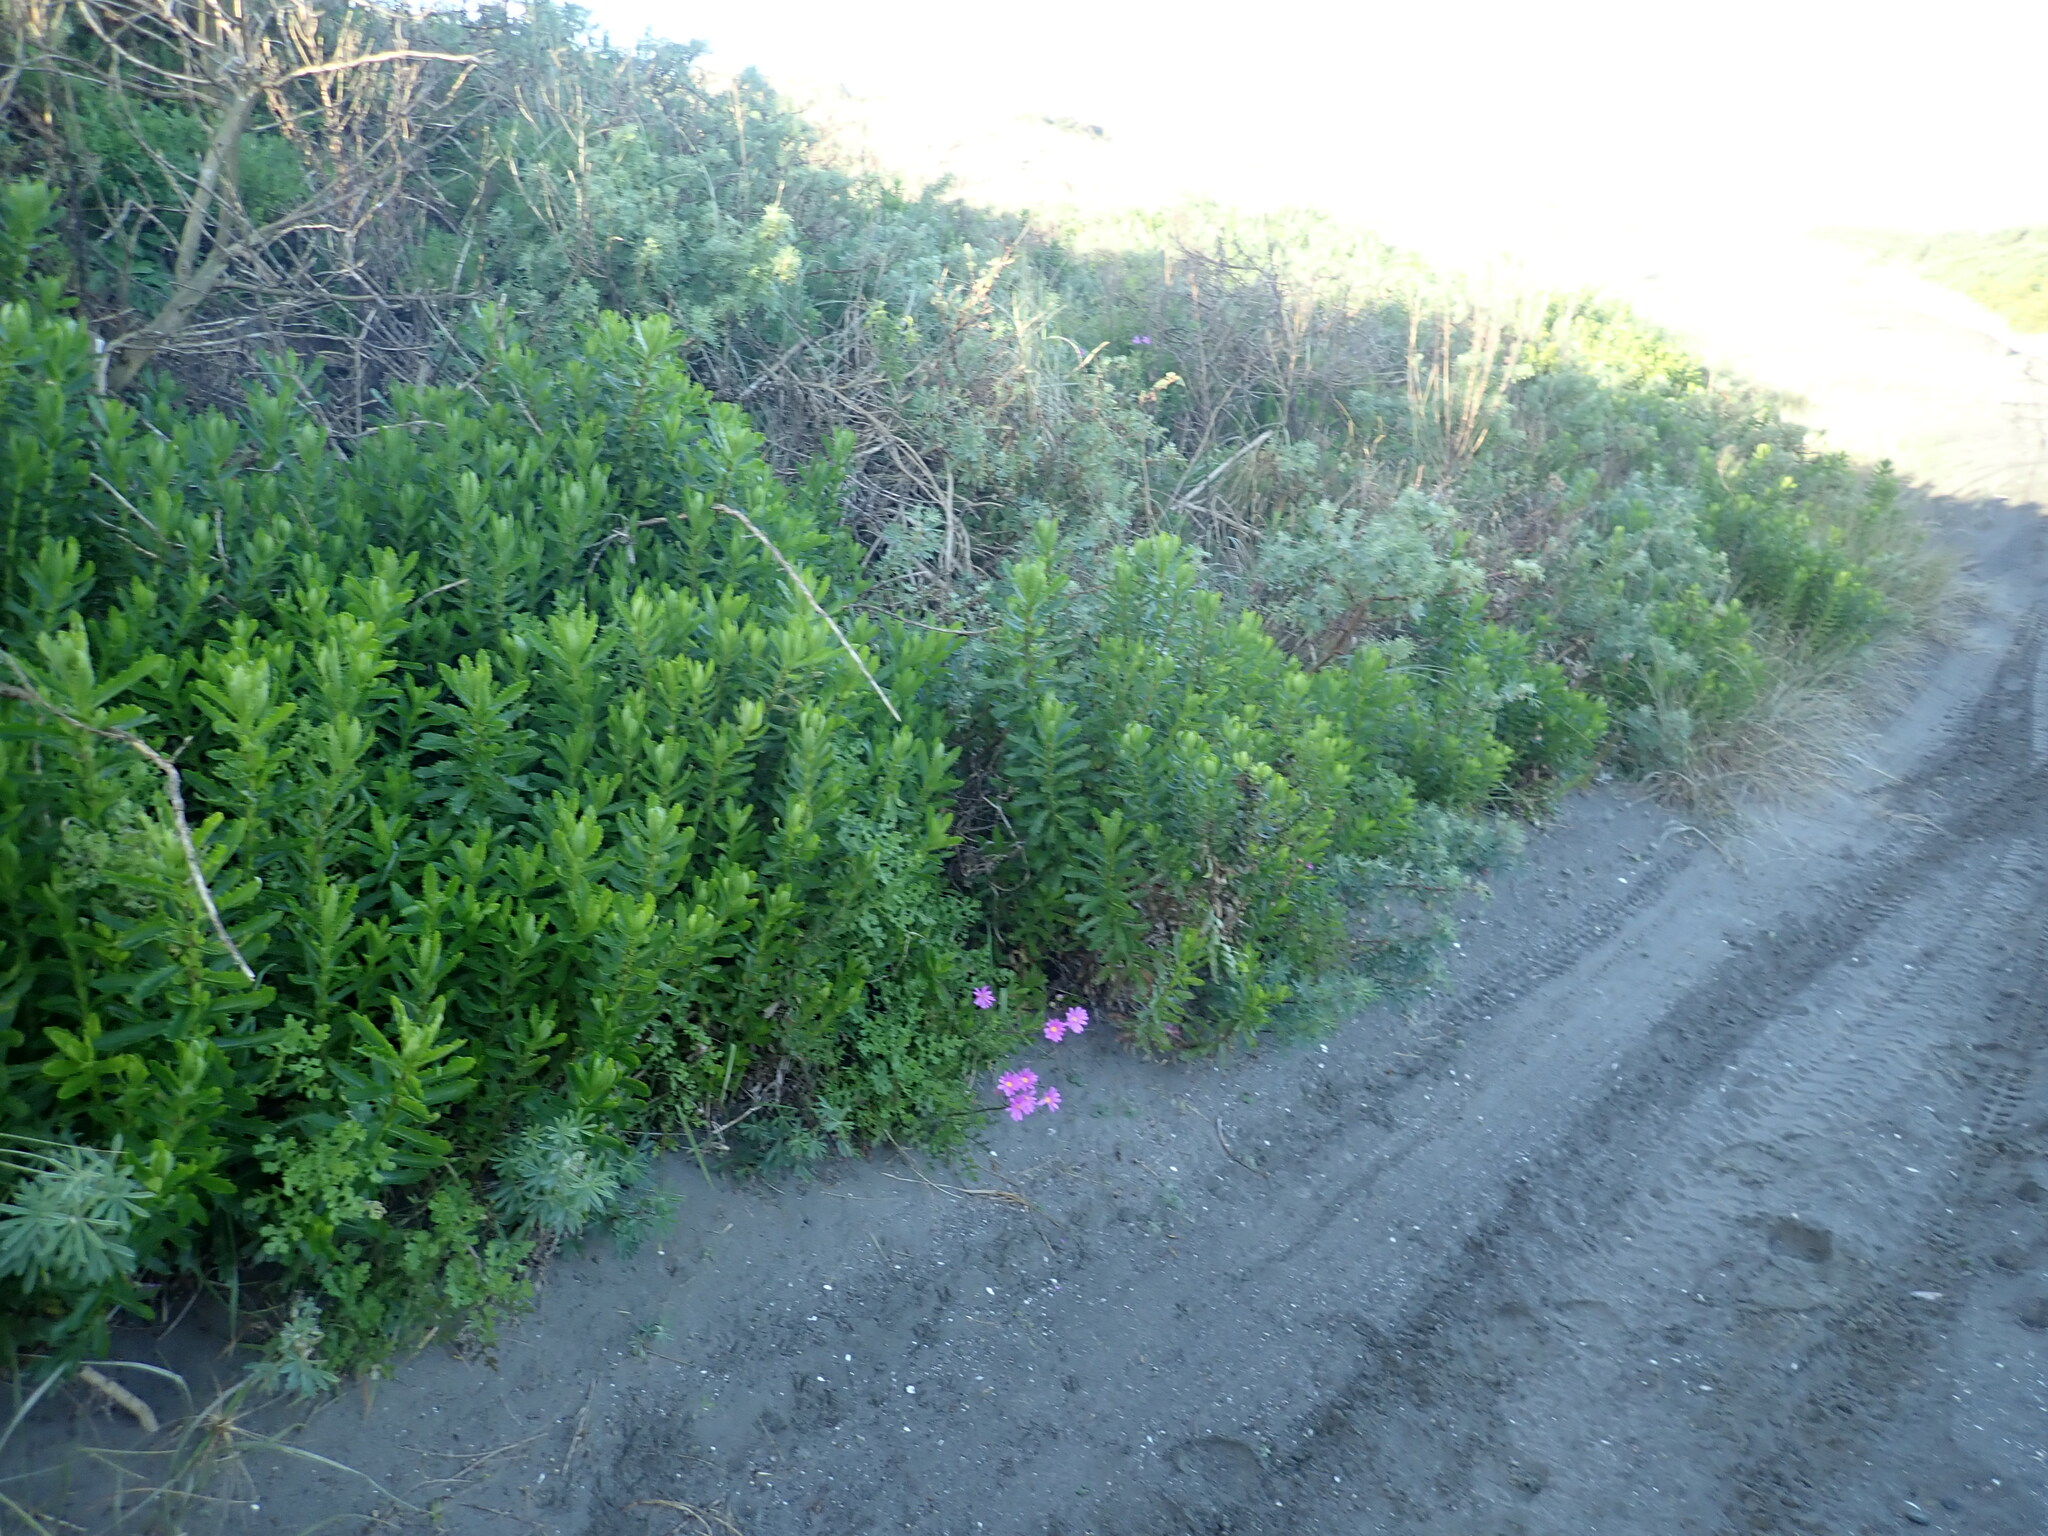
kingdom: Plantae
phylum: Tracheophyta
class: Magnoliopsida
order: Asterales
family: Asteraceae
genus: Senecio
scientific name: Senecio elegans
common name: Purple groundsel
